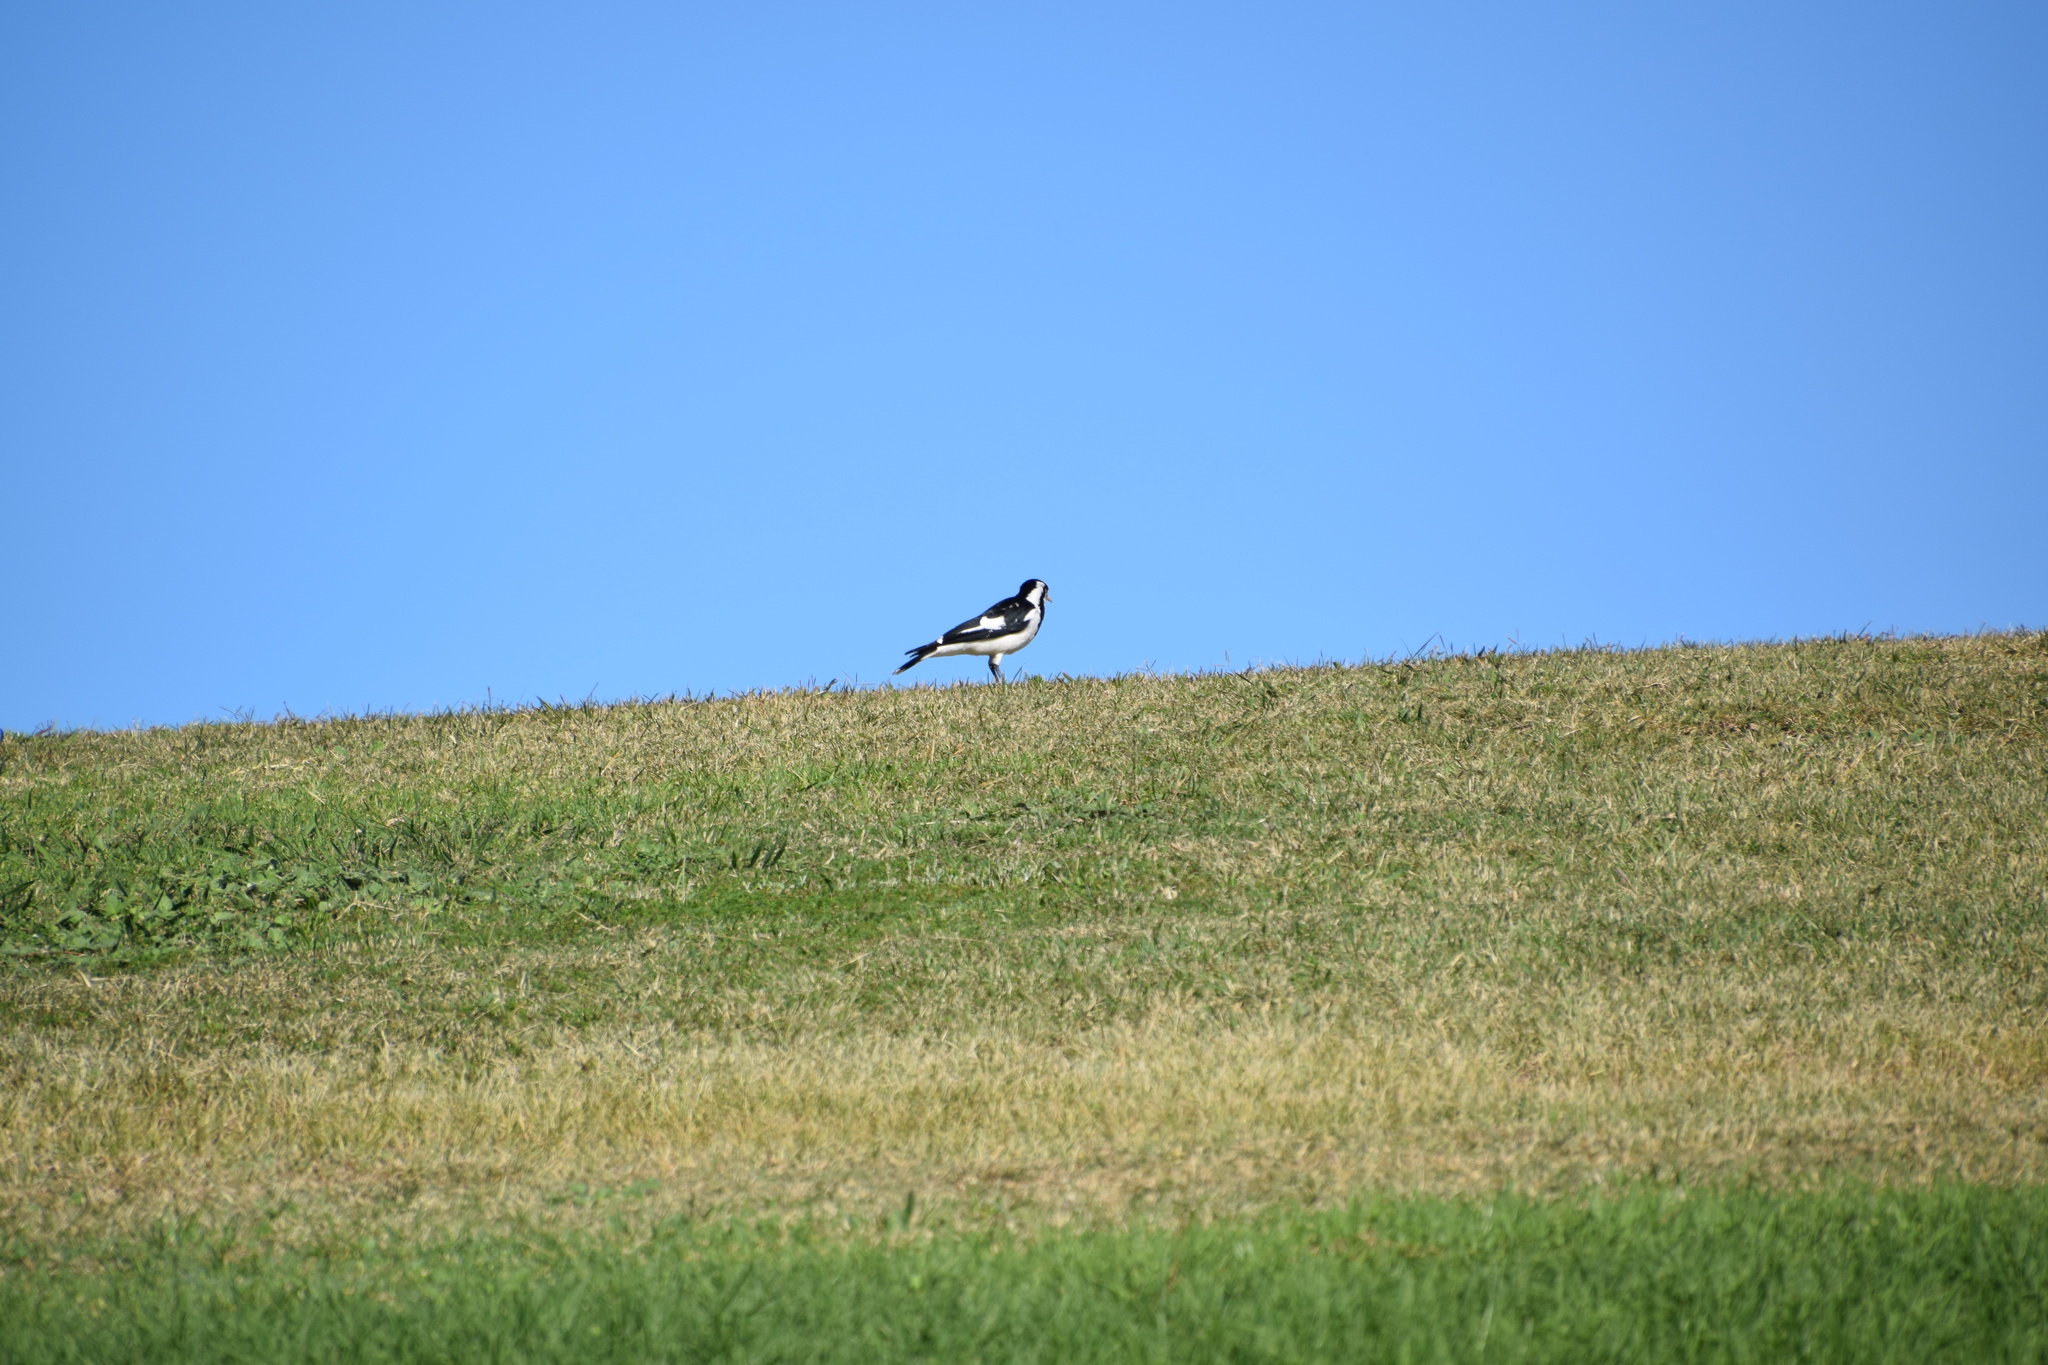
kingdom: Animalia
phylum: Chordata
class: Aves
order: Passeriformes
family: Monarchidae
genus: Grallina
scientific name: Grallina cyanoleuca
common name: Magpie-lark
